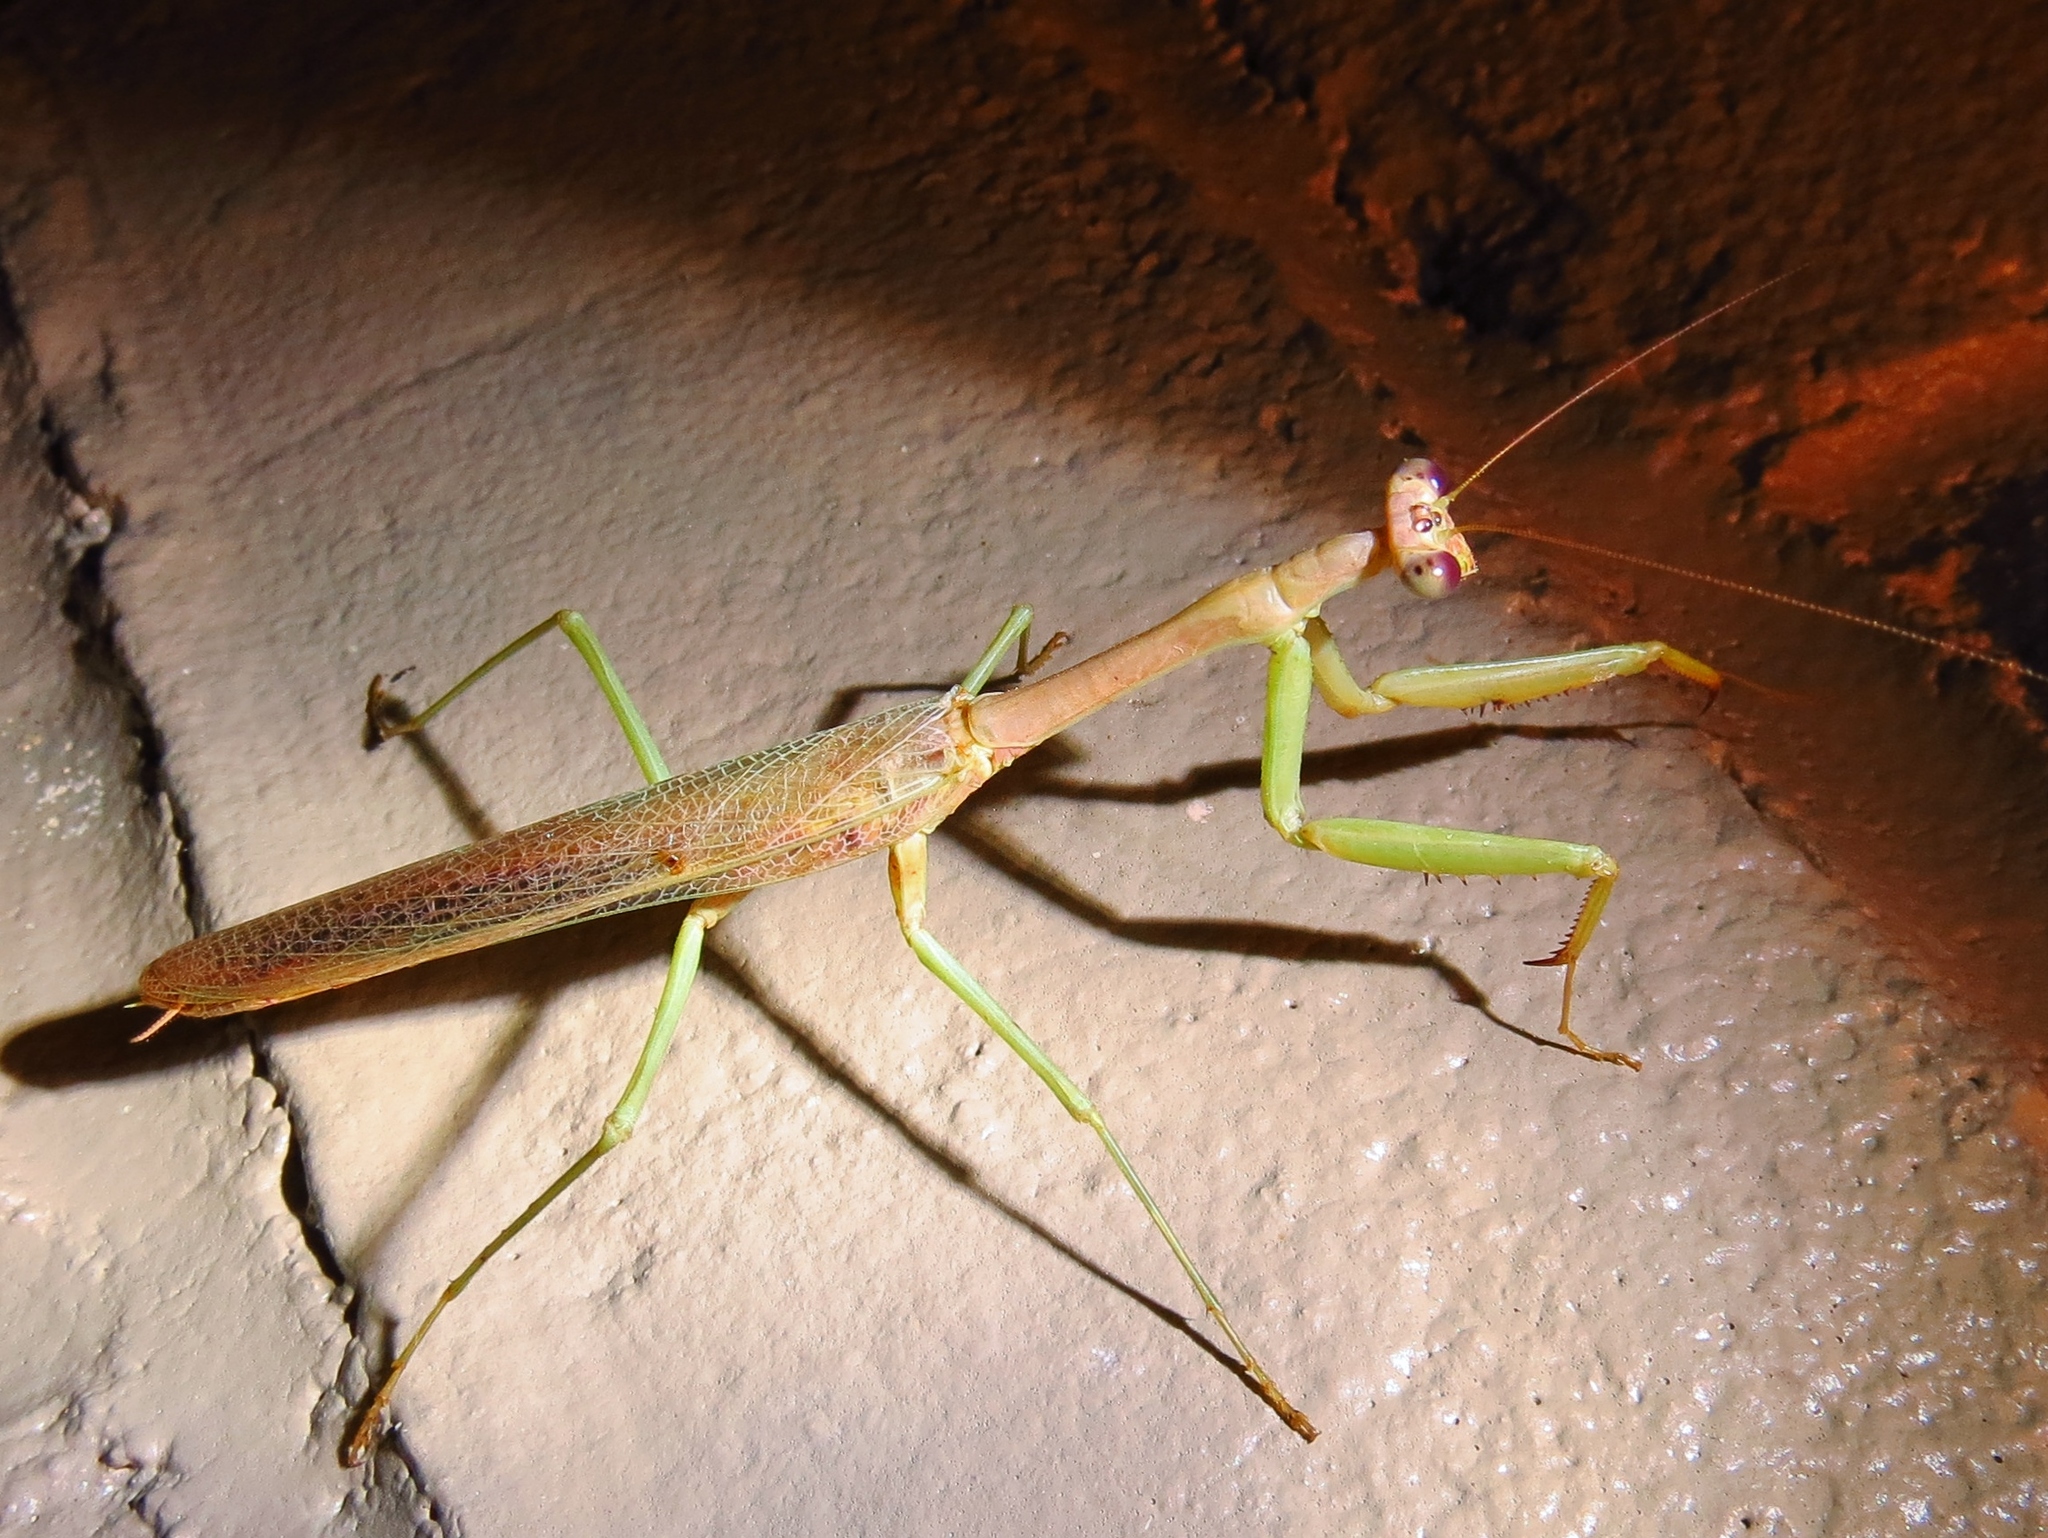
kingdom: Animalia
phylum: Arthropoda
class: Insecta
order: Mantodea
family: Mantidae
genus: Stagmomantis
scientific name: Stagmomantis carolina
